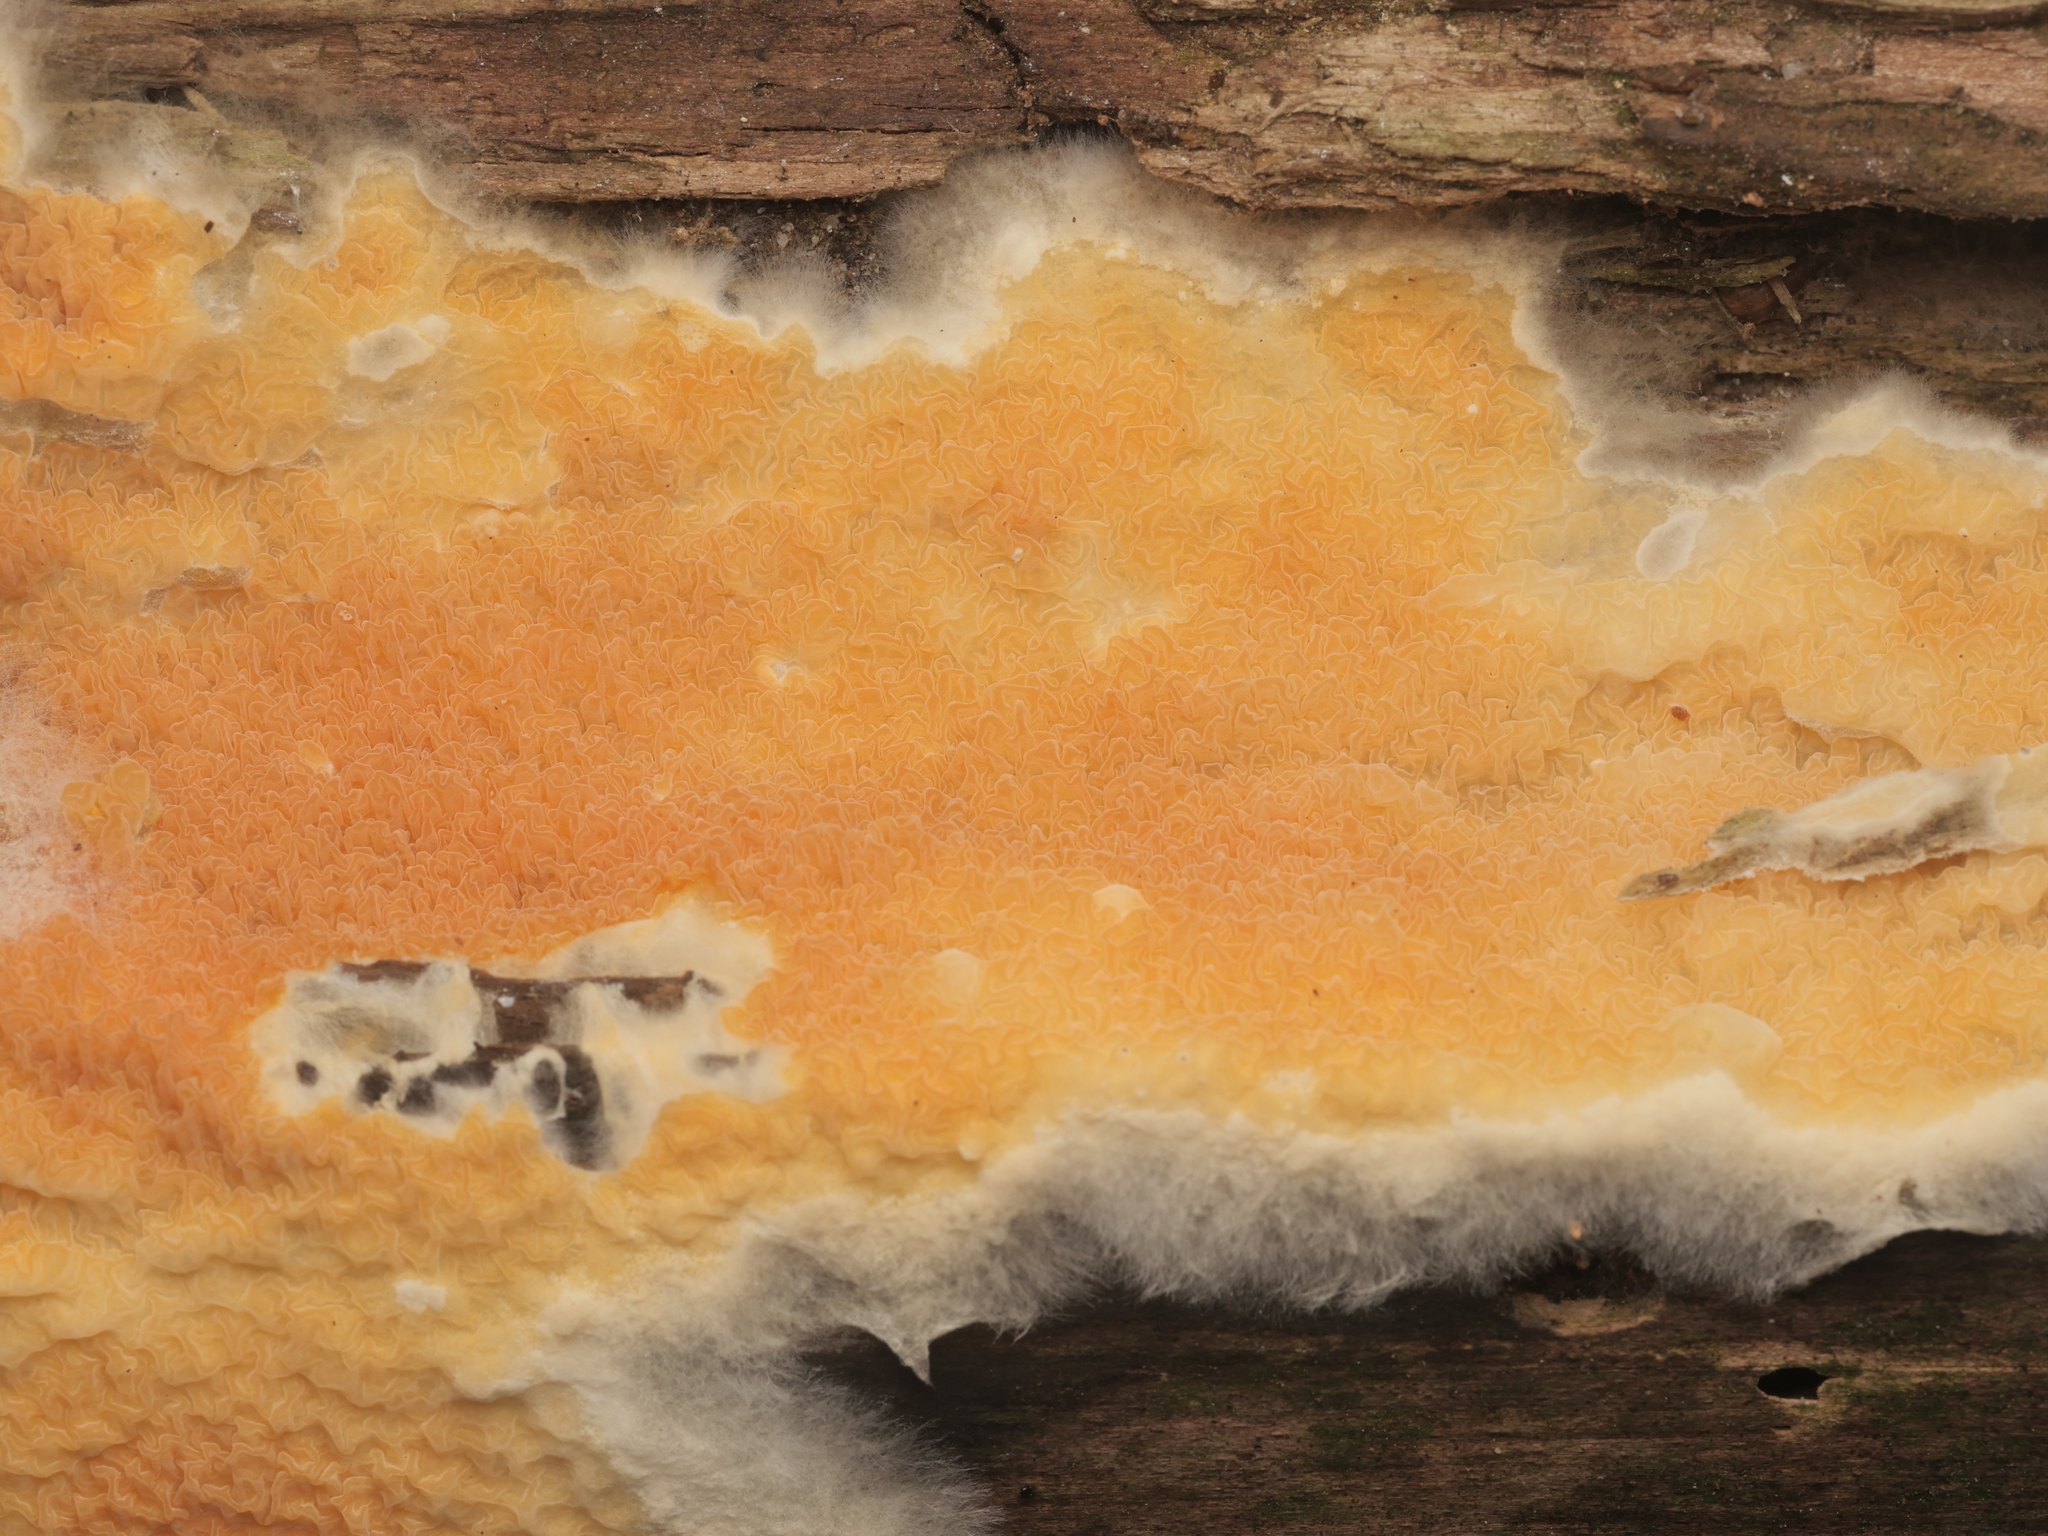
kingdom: Fungi
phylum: Basidiomycota
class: Agaricomycetes
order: Boletales
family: Hygrophoropsidaceae
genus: Leucogyrophana
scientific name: Leucogyrophana mollusca
